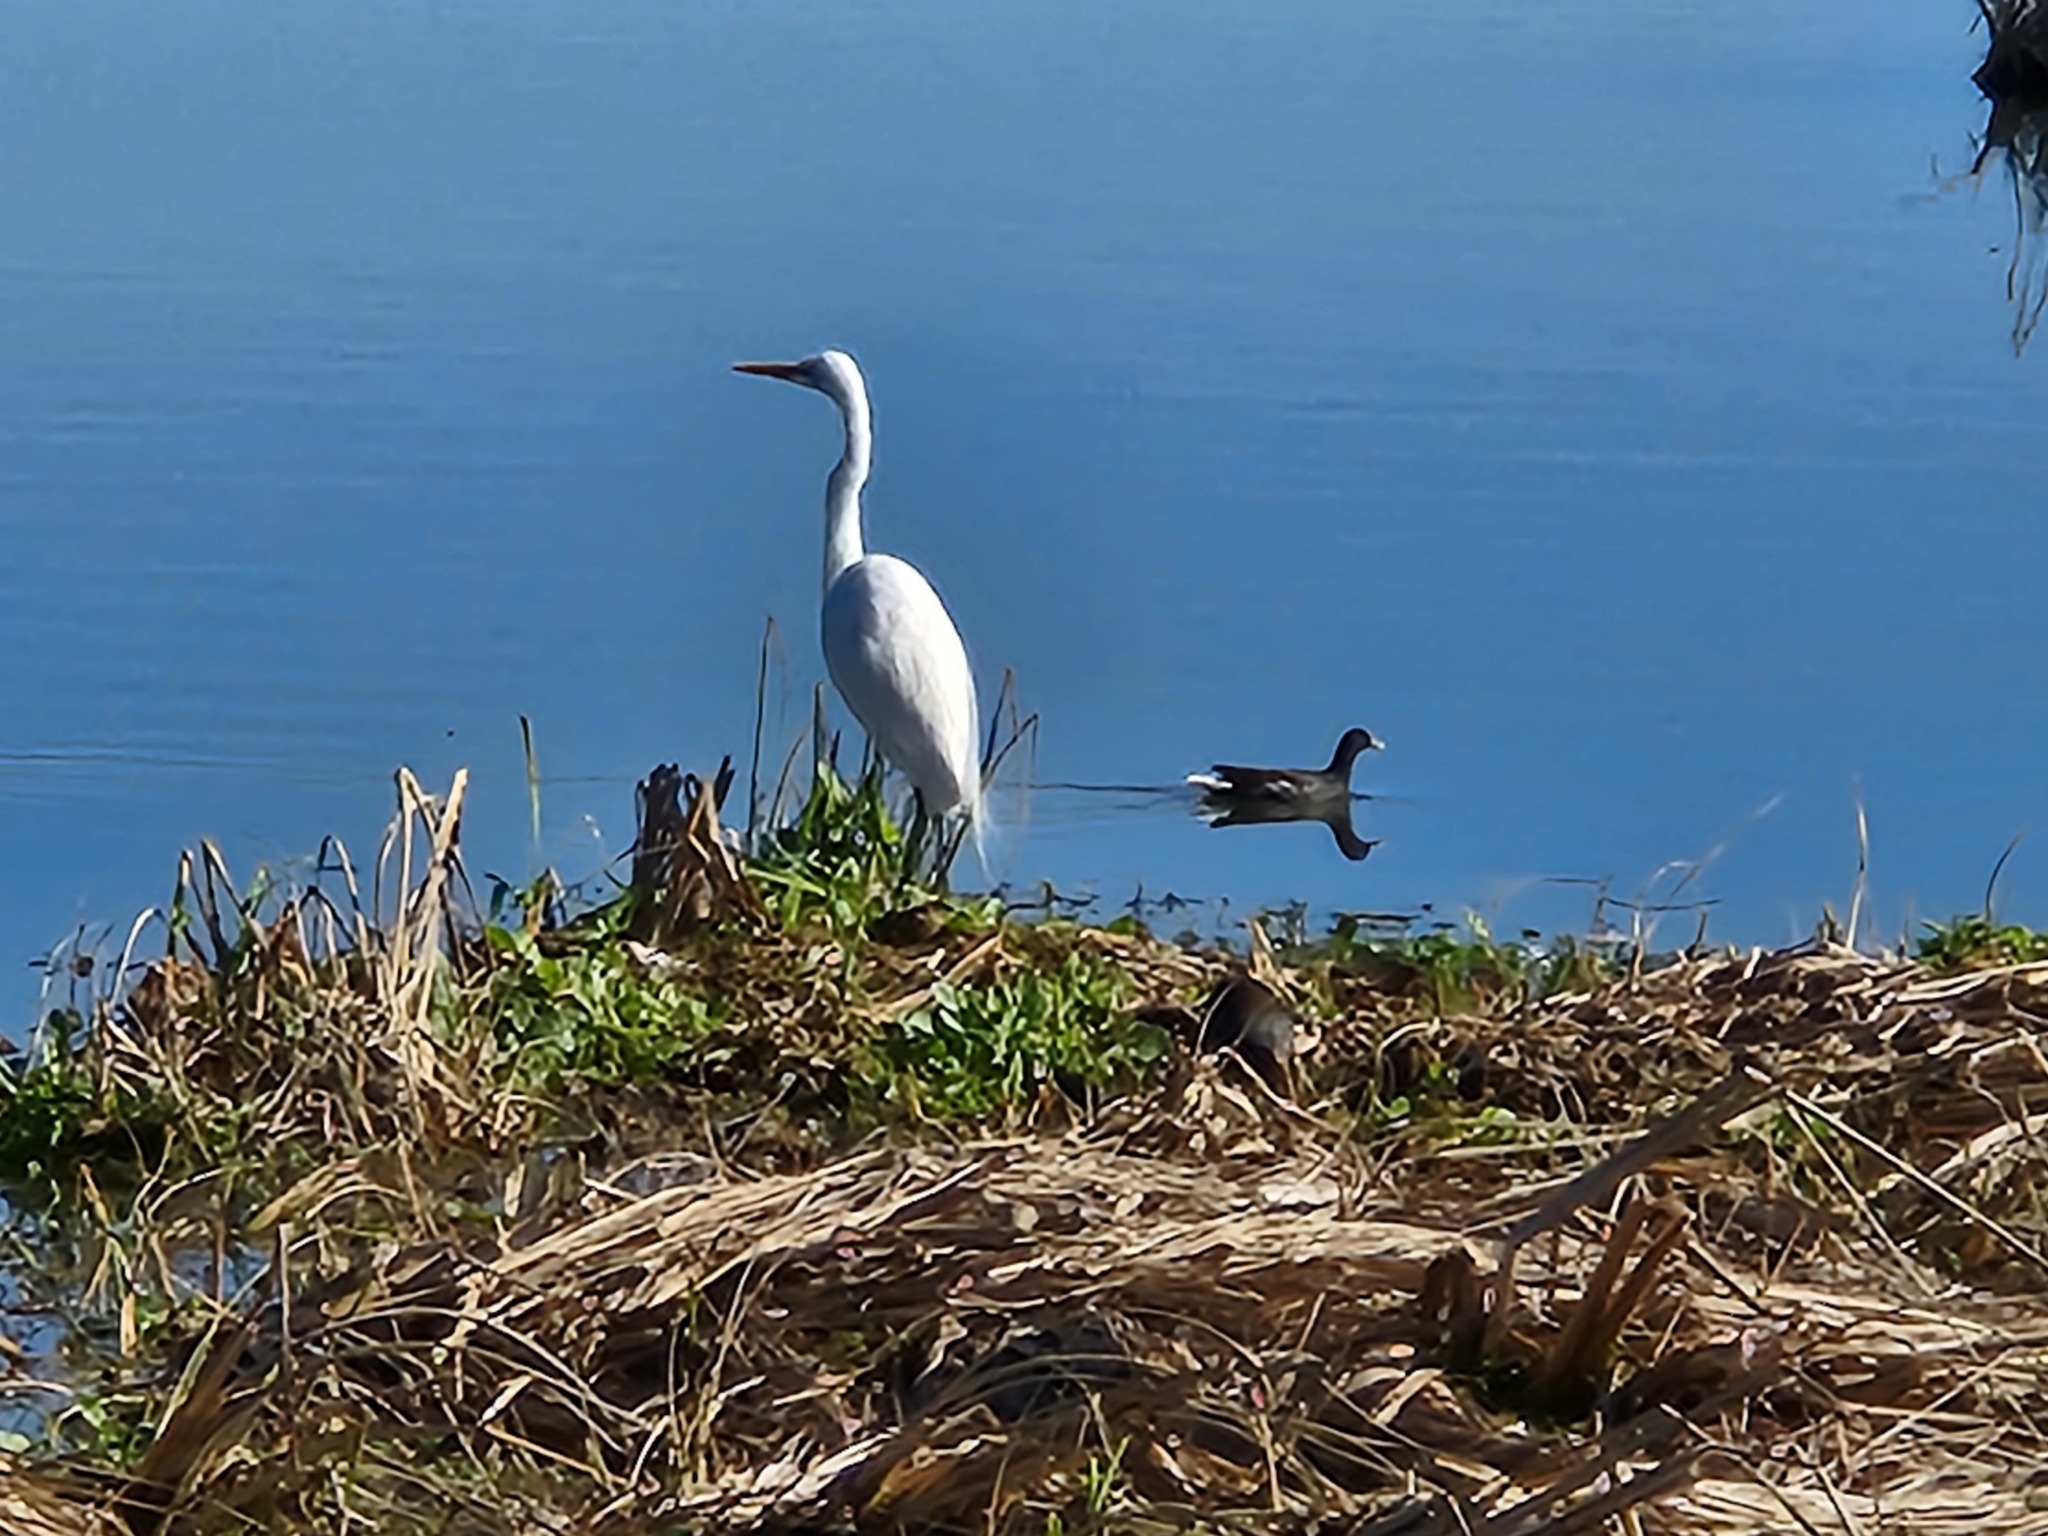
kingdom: Animalia
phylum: Chordata
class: Aves
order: Pelecaniformes
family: Ardeidae
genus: Ardea
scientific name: Ardea alba
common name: Great egret
